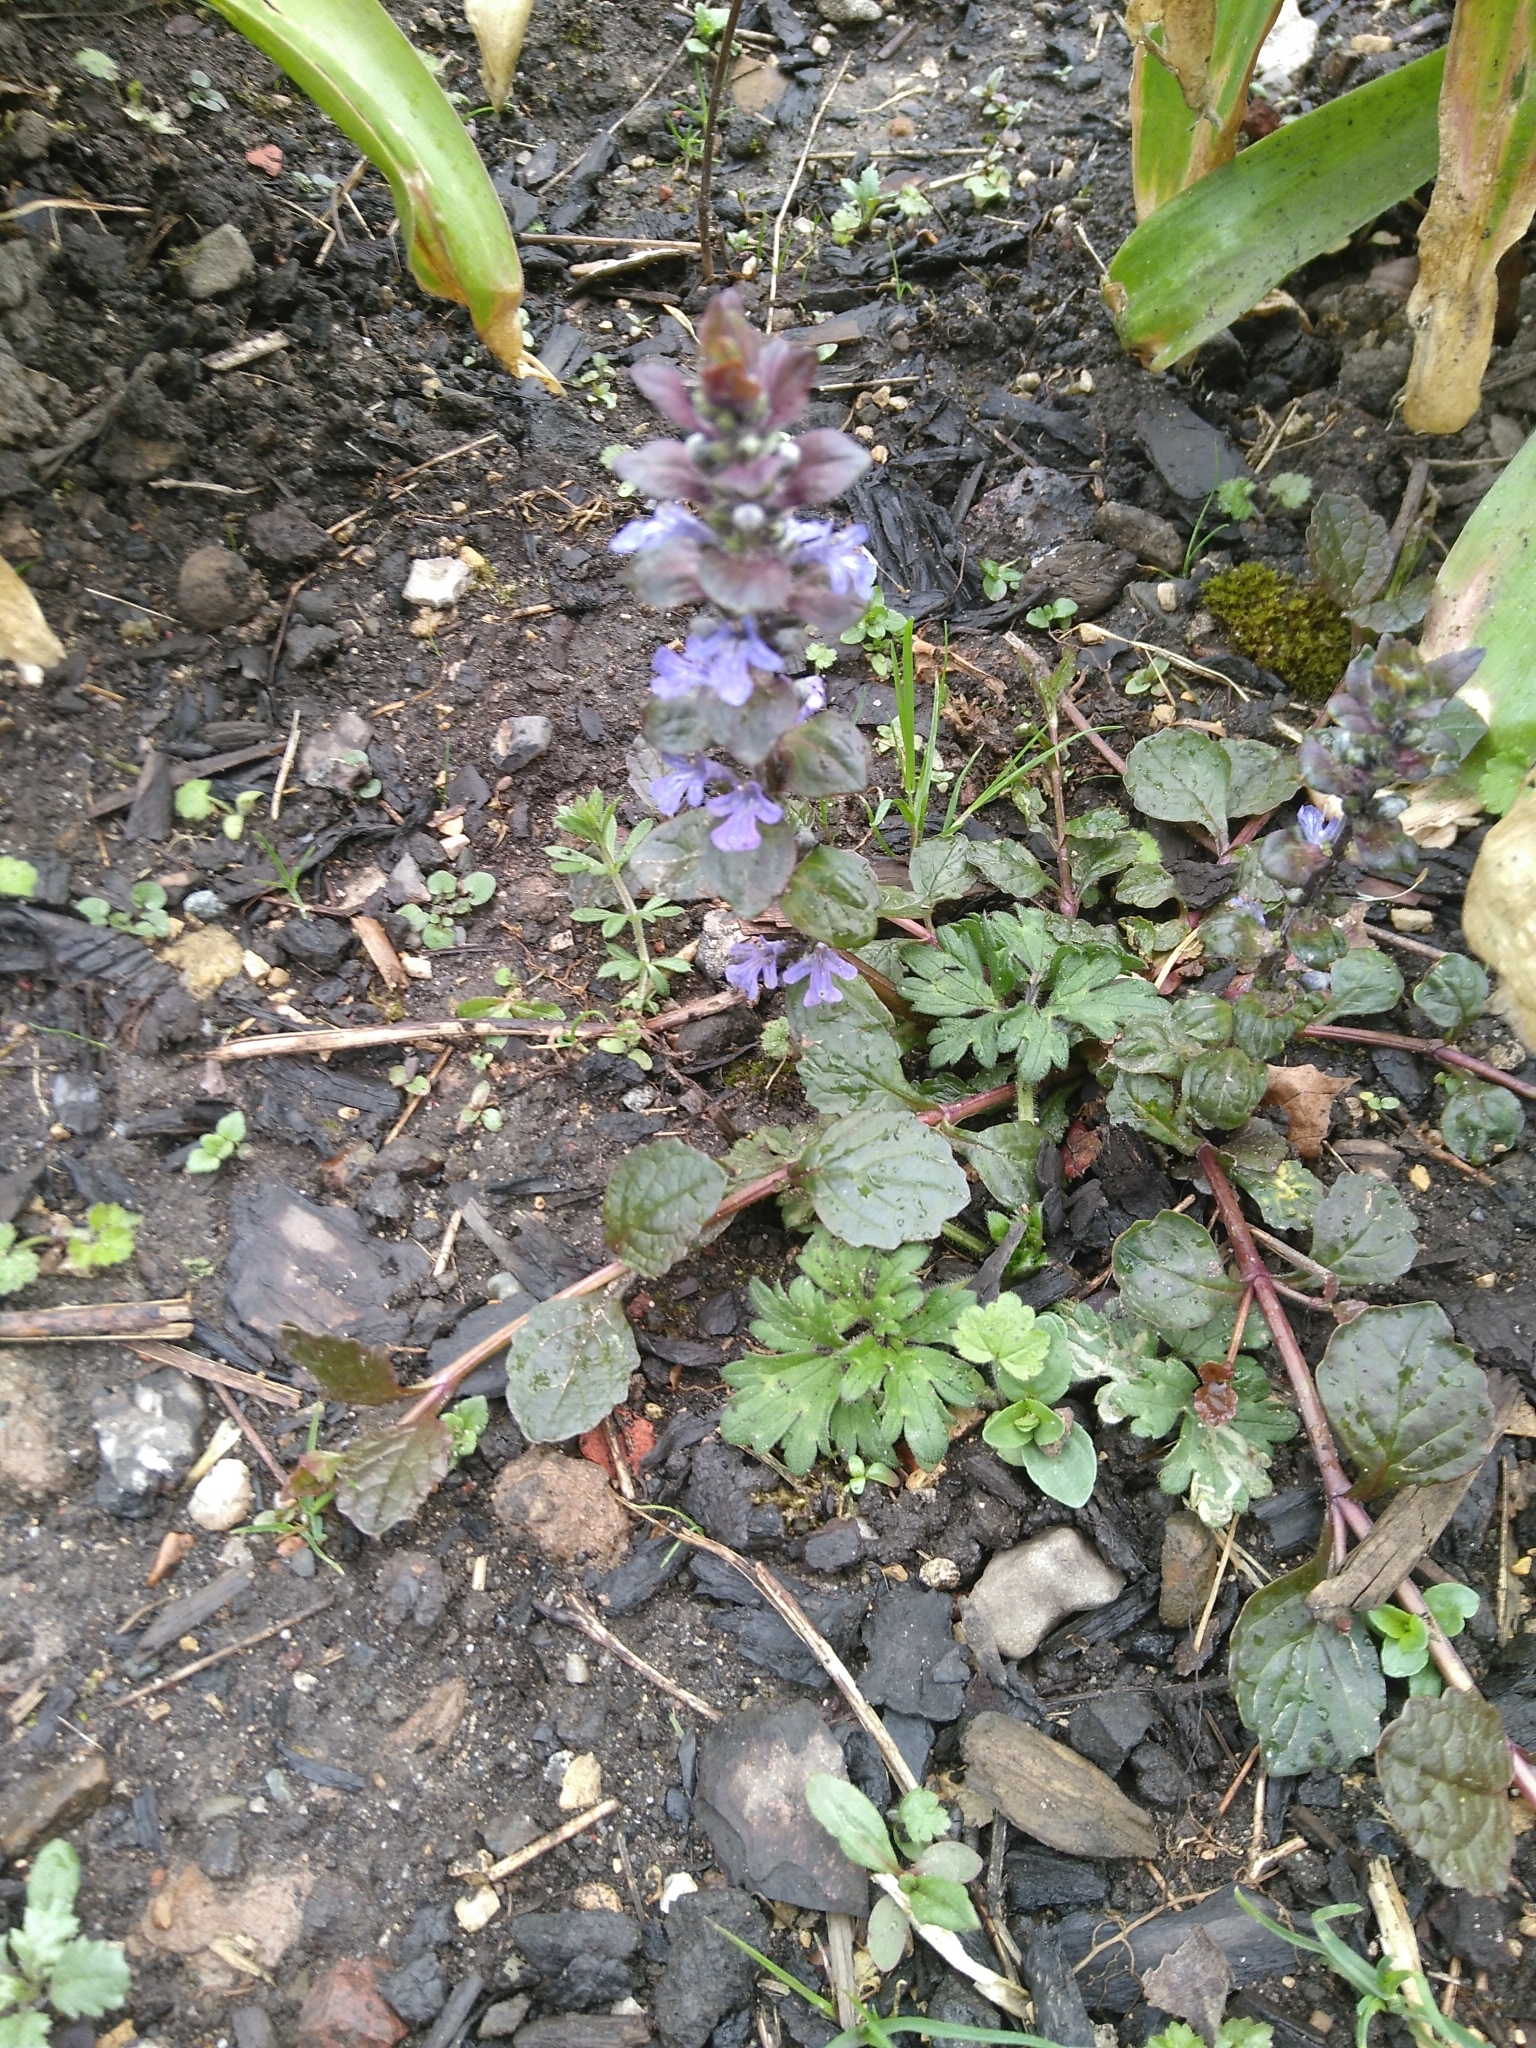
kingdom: Plantae
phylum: Tracheophyta
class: Magnoliopsida
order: Lamiales
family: Lamiaceae
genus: Ajuga
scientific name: Ajuga reptans
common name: Bugle
